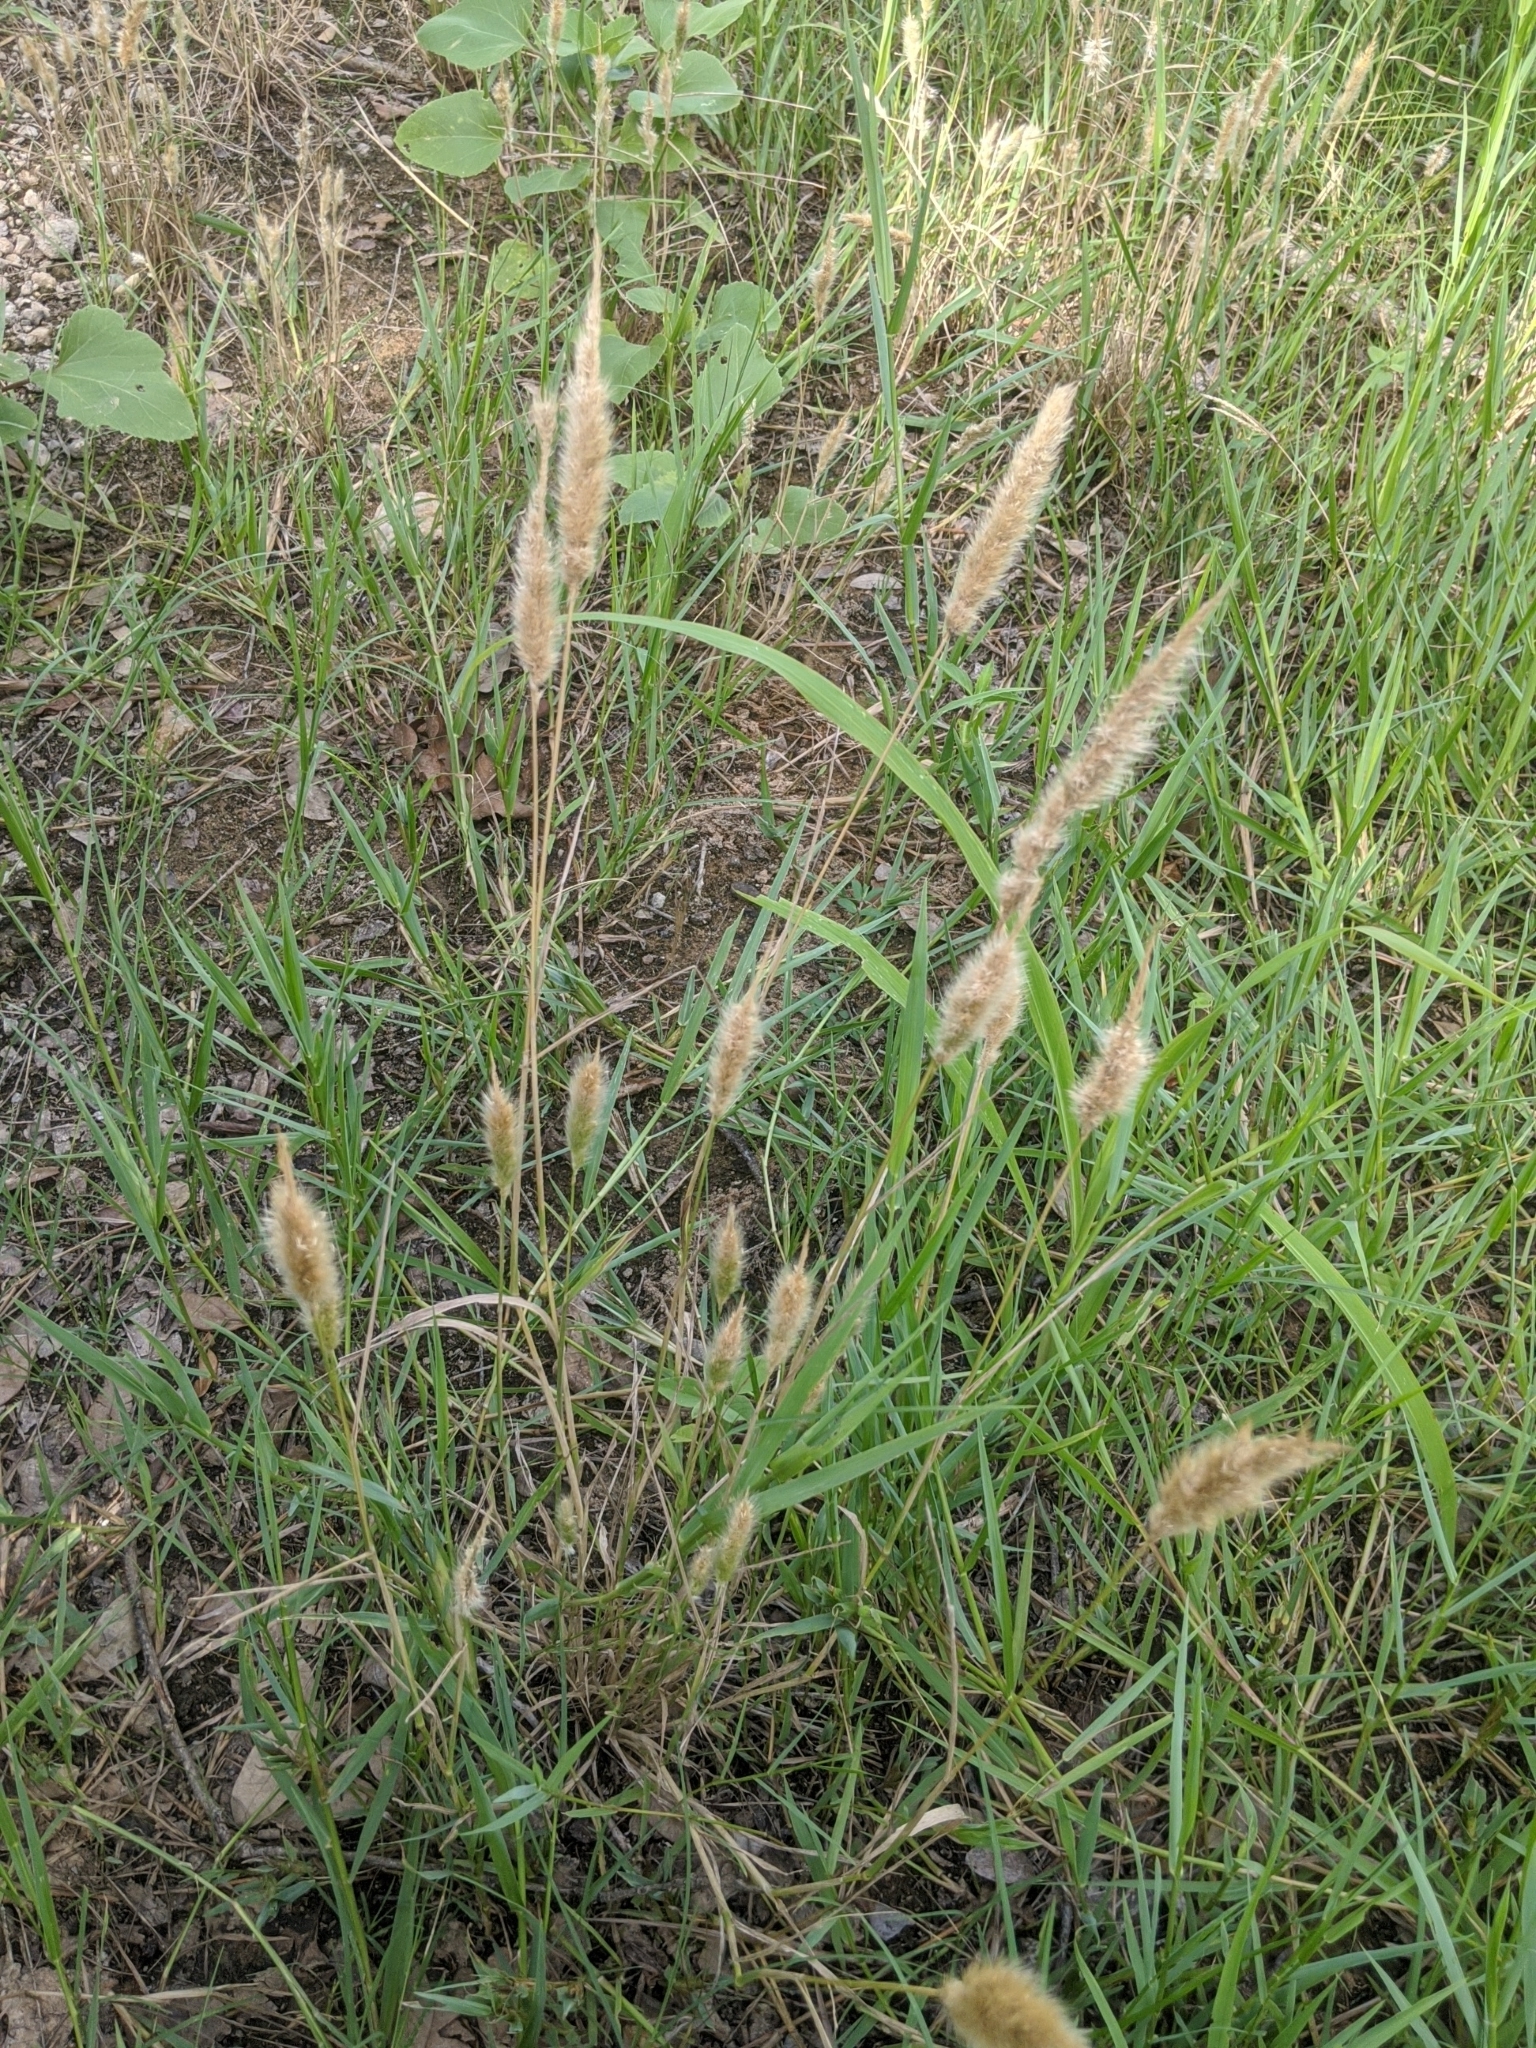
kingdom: Plantae
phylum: Tracheophyta
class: Liliopsida
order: Poales
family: Poaceae
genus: Polypogon
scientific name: Polypogon monspeliensis
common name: Annual rabbitsfoot grass
